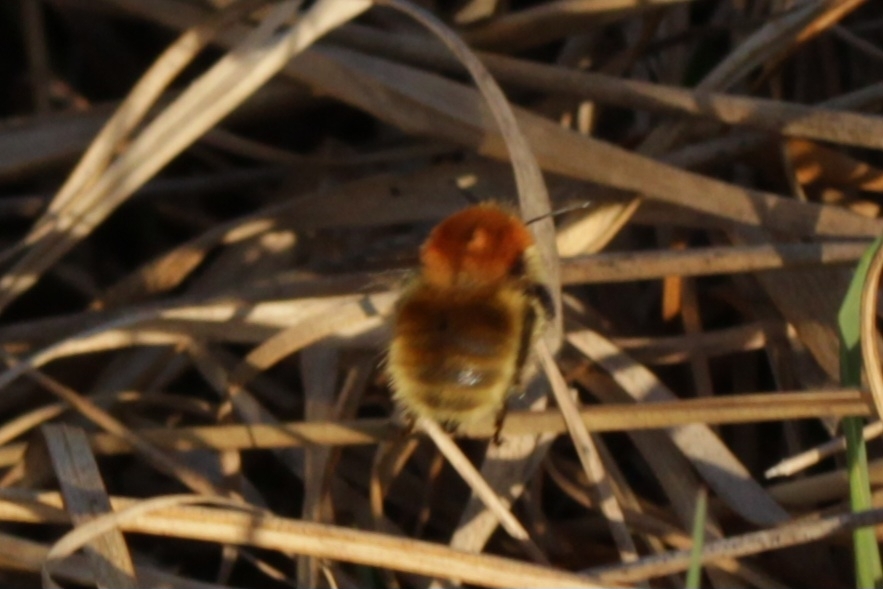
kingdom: Animalia
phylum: Arthropoda
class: Insecta
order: Hymenoptera
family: Apidae
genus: Bombus
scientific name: Bombus muscorum
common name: Moss carder-bee
